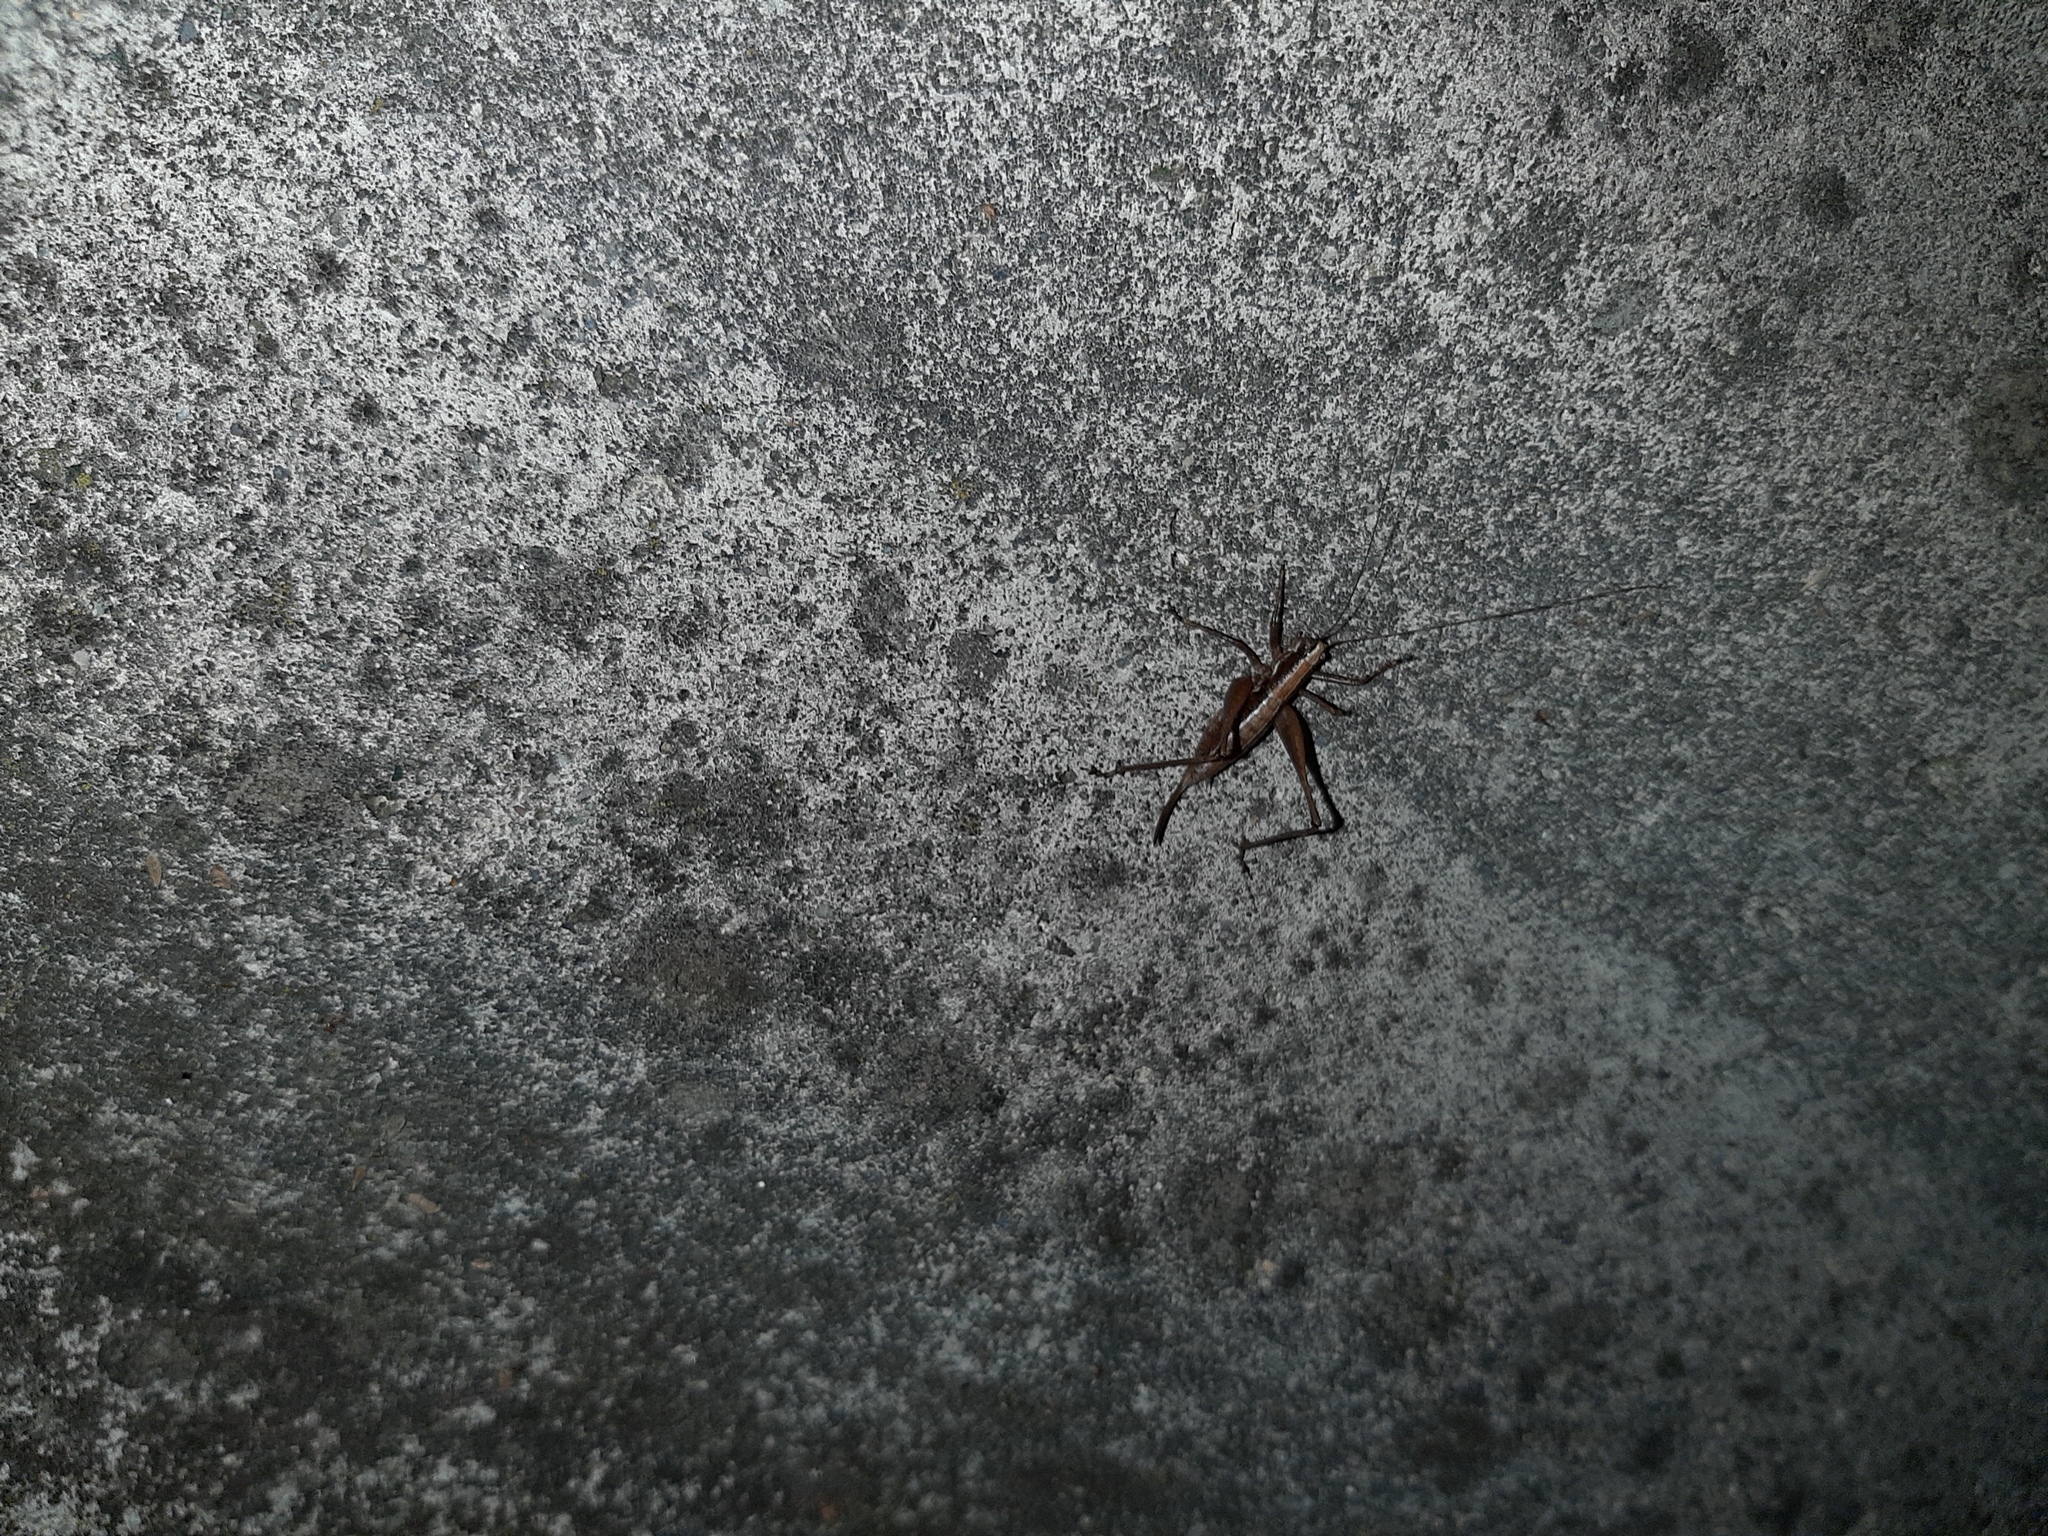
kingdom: Animalia
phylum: Arthropoda
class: Insecta
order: Orthoptera
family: Tettigoniidae
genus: Yersinella
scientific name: Yersinella raymondii
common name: Raymond's bush-cricket
